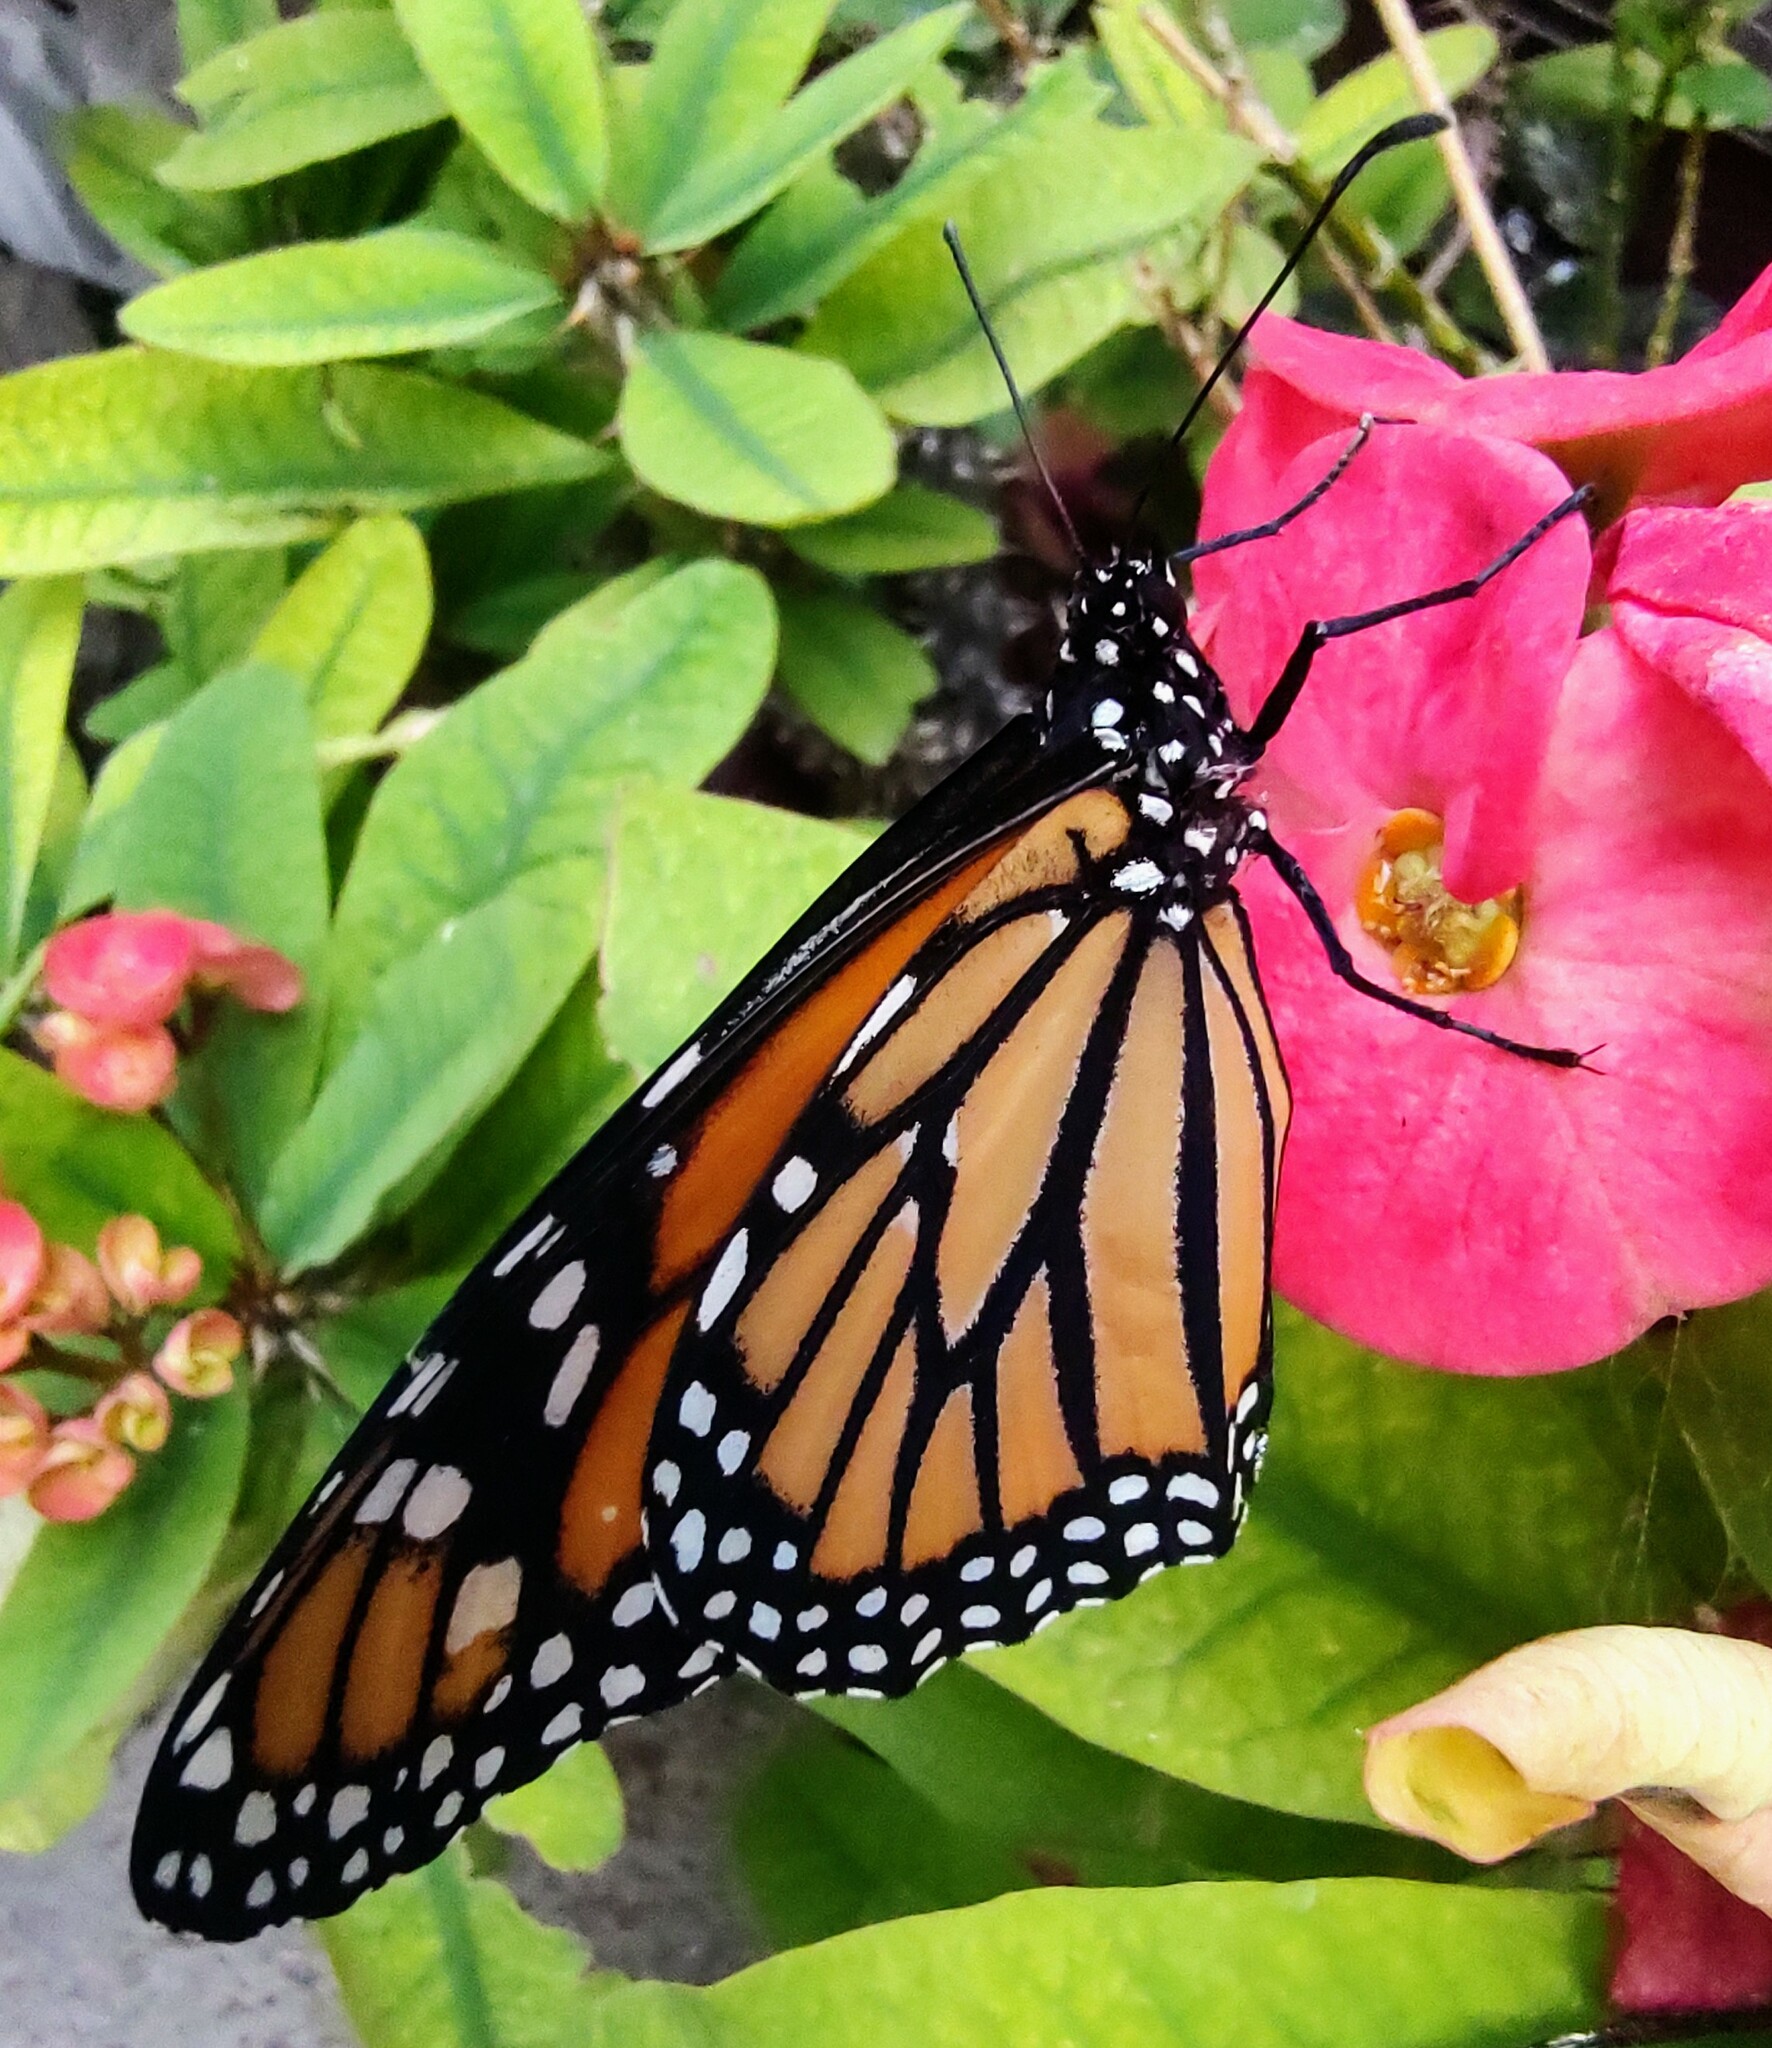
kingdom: Animalia
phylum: Arthropoda
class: Insecta
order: Lepidoptera
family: Nymphalidae
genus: Danaus
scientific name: Danaus plexippus
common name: Monarch
